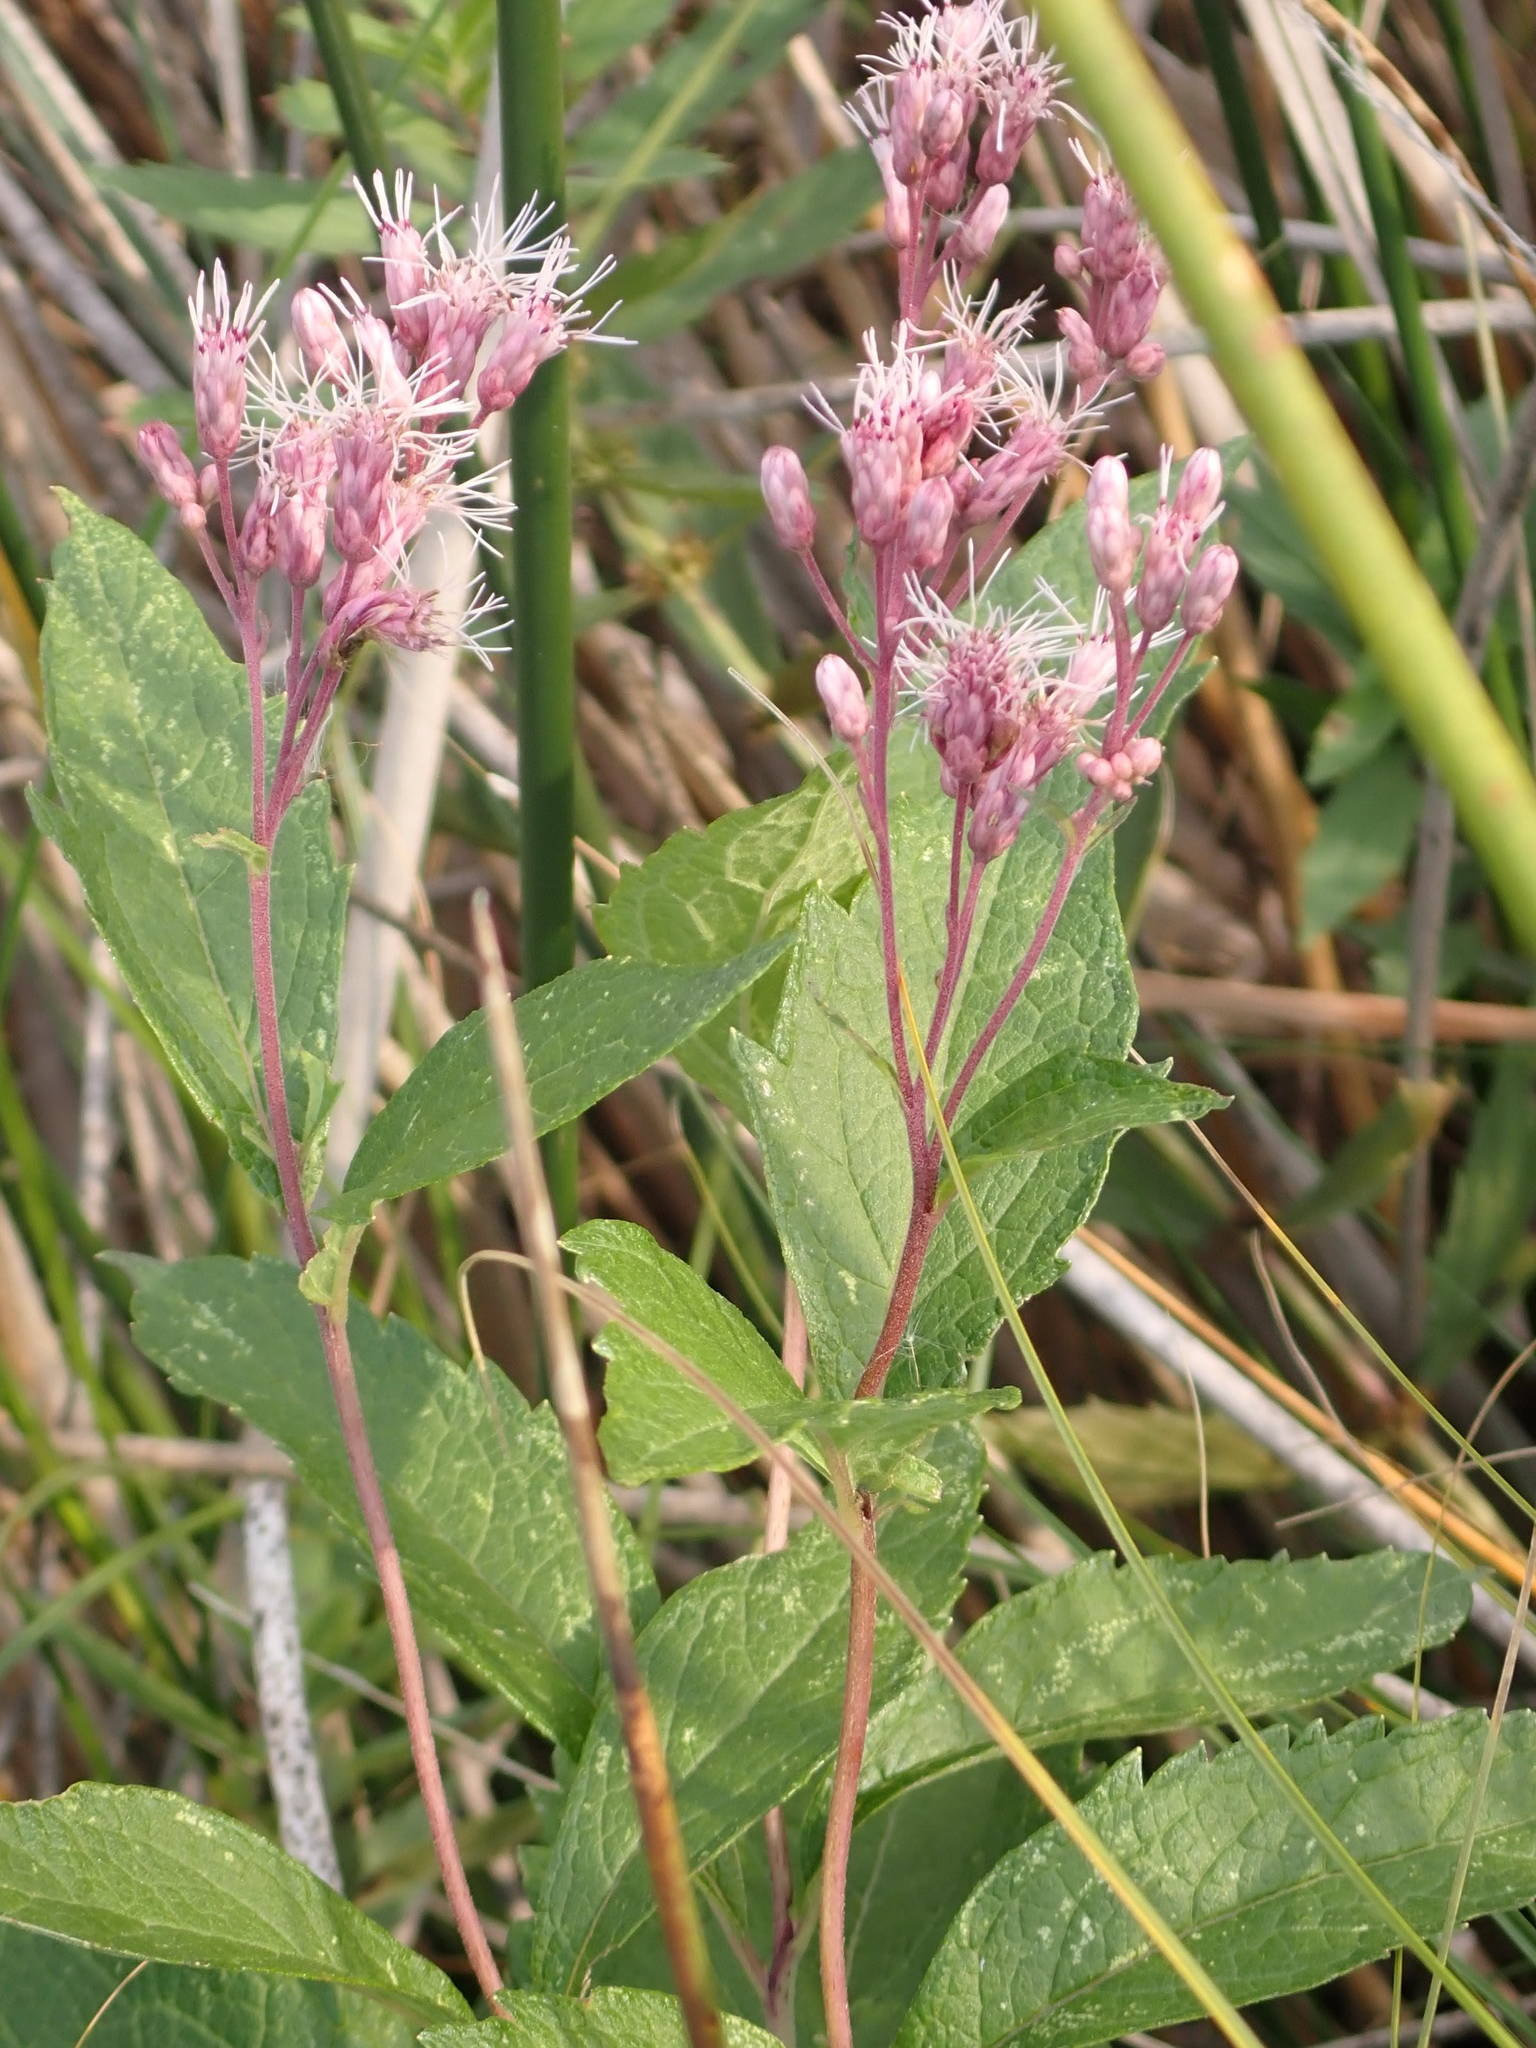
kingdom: Plantae
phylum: Tracheophyta
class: Magnoliopsida
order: Asterales
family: Asteraceae
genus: Eutrochium
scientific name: Eutrochium maculatum
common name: Spotted joe pye weed
